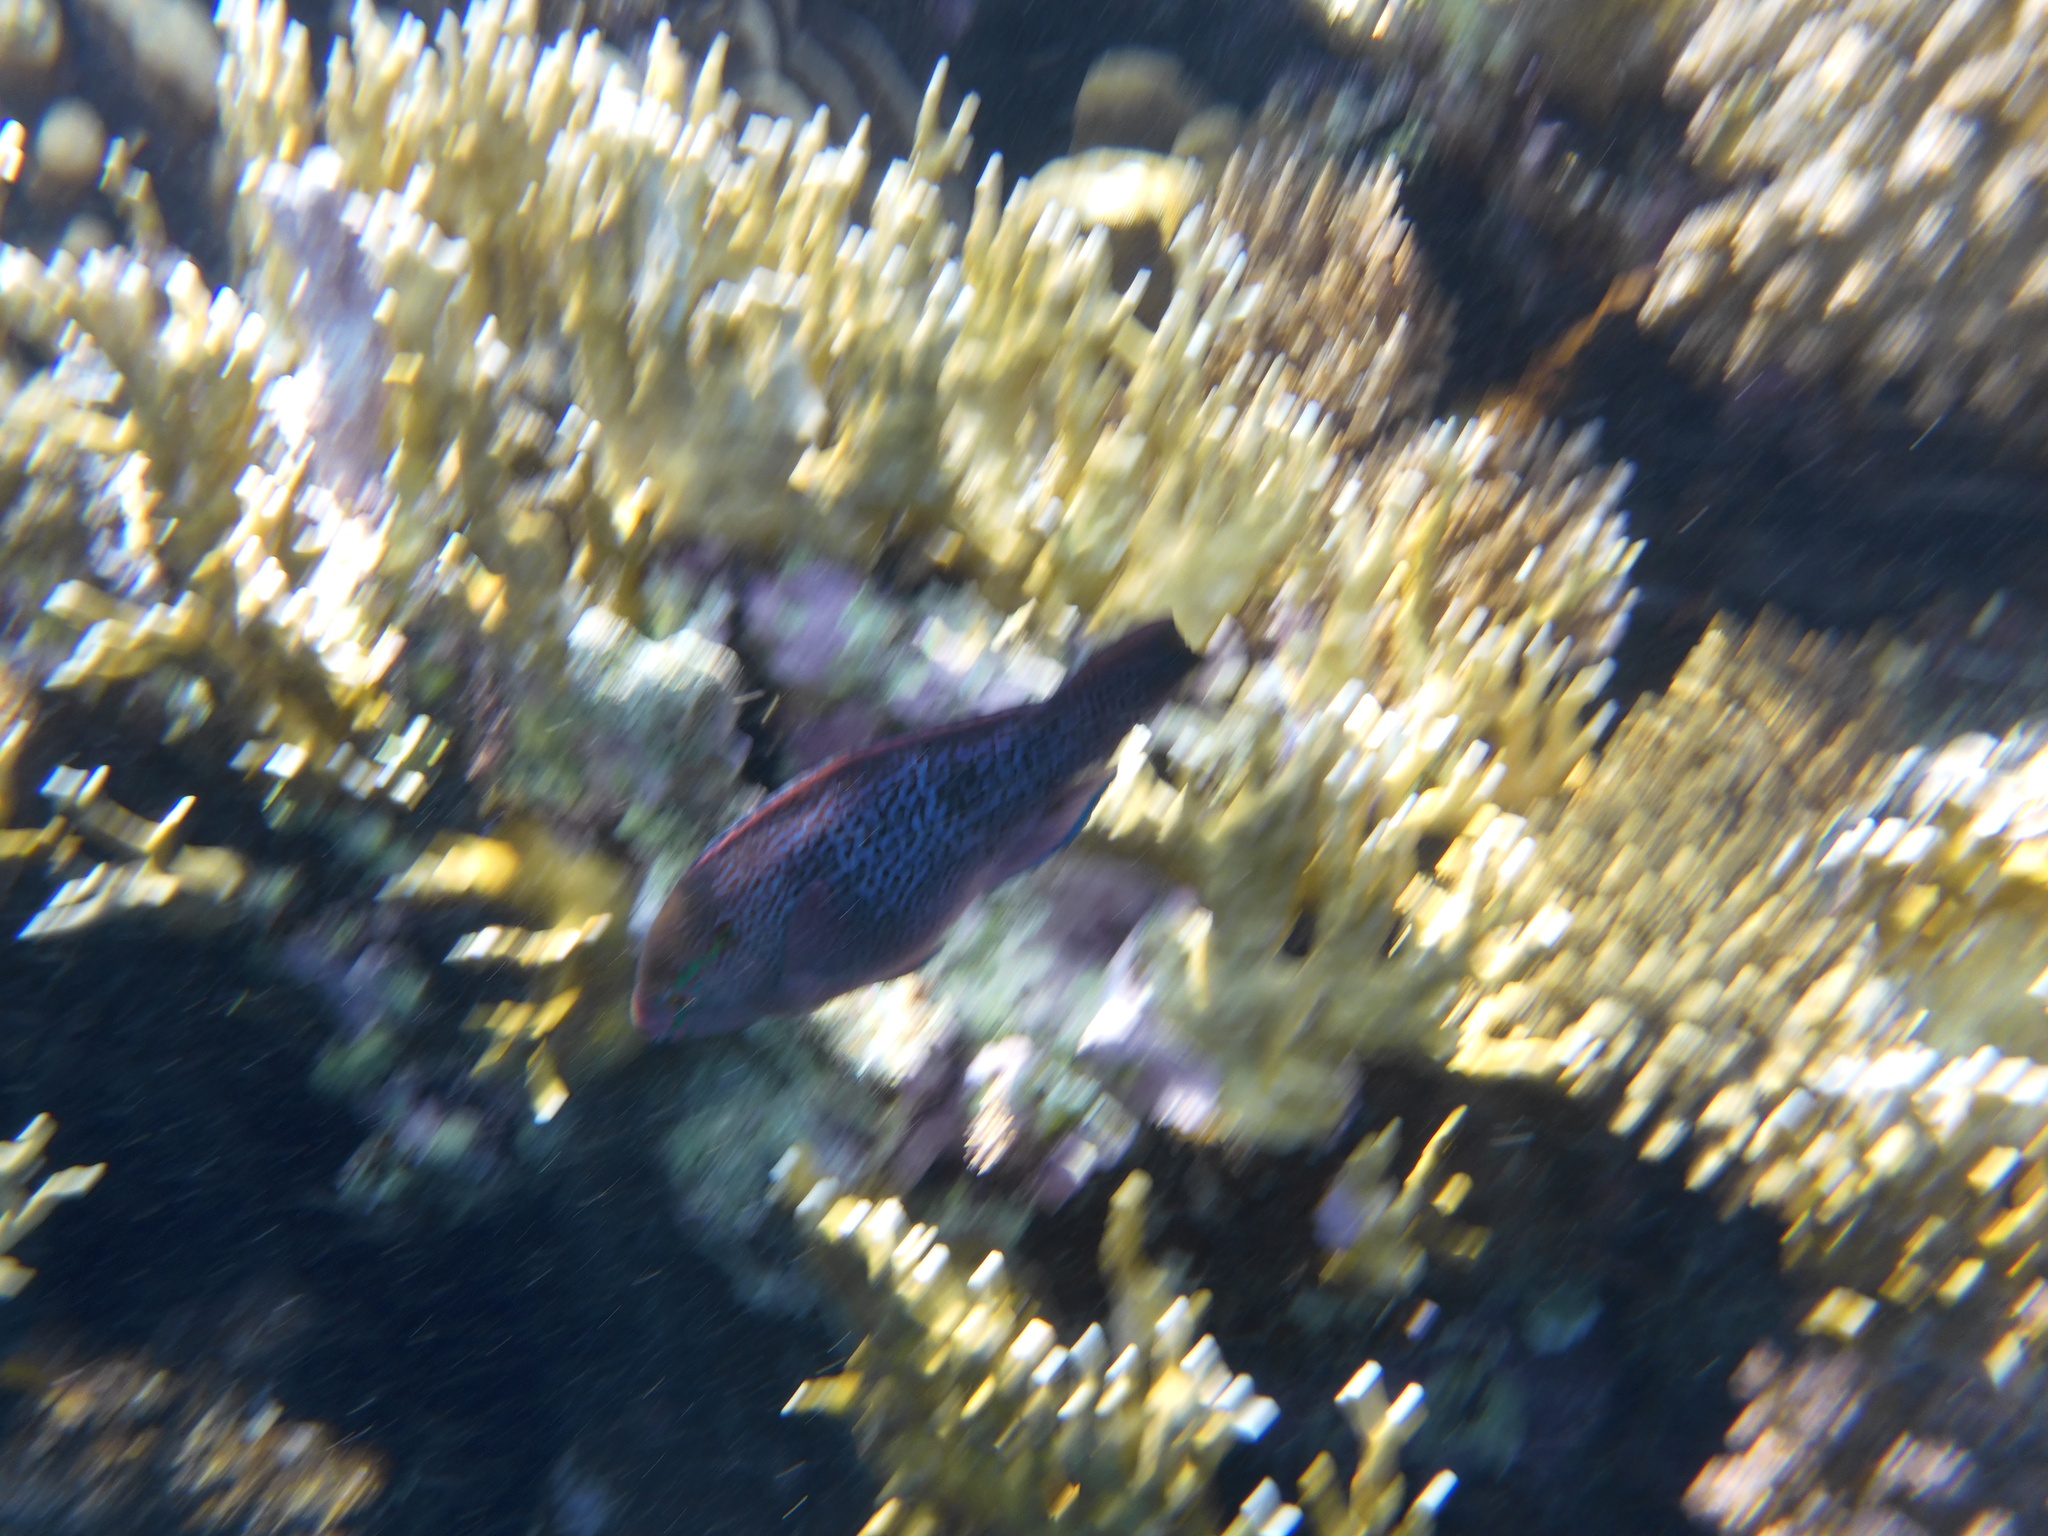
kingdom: Animalia
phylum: Chordata
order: Perciformes
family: Scaridae
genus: Scarus
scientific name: Scarus niger
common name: Dusky parrotfish
